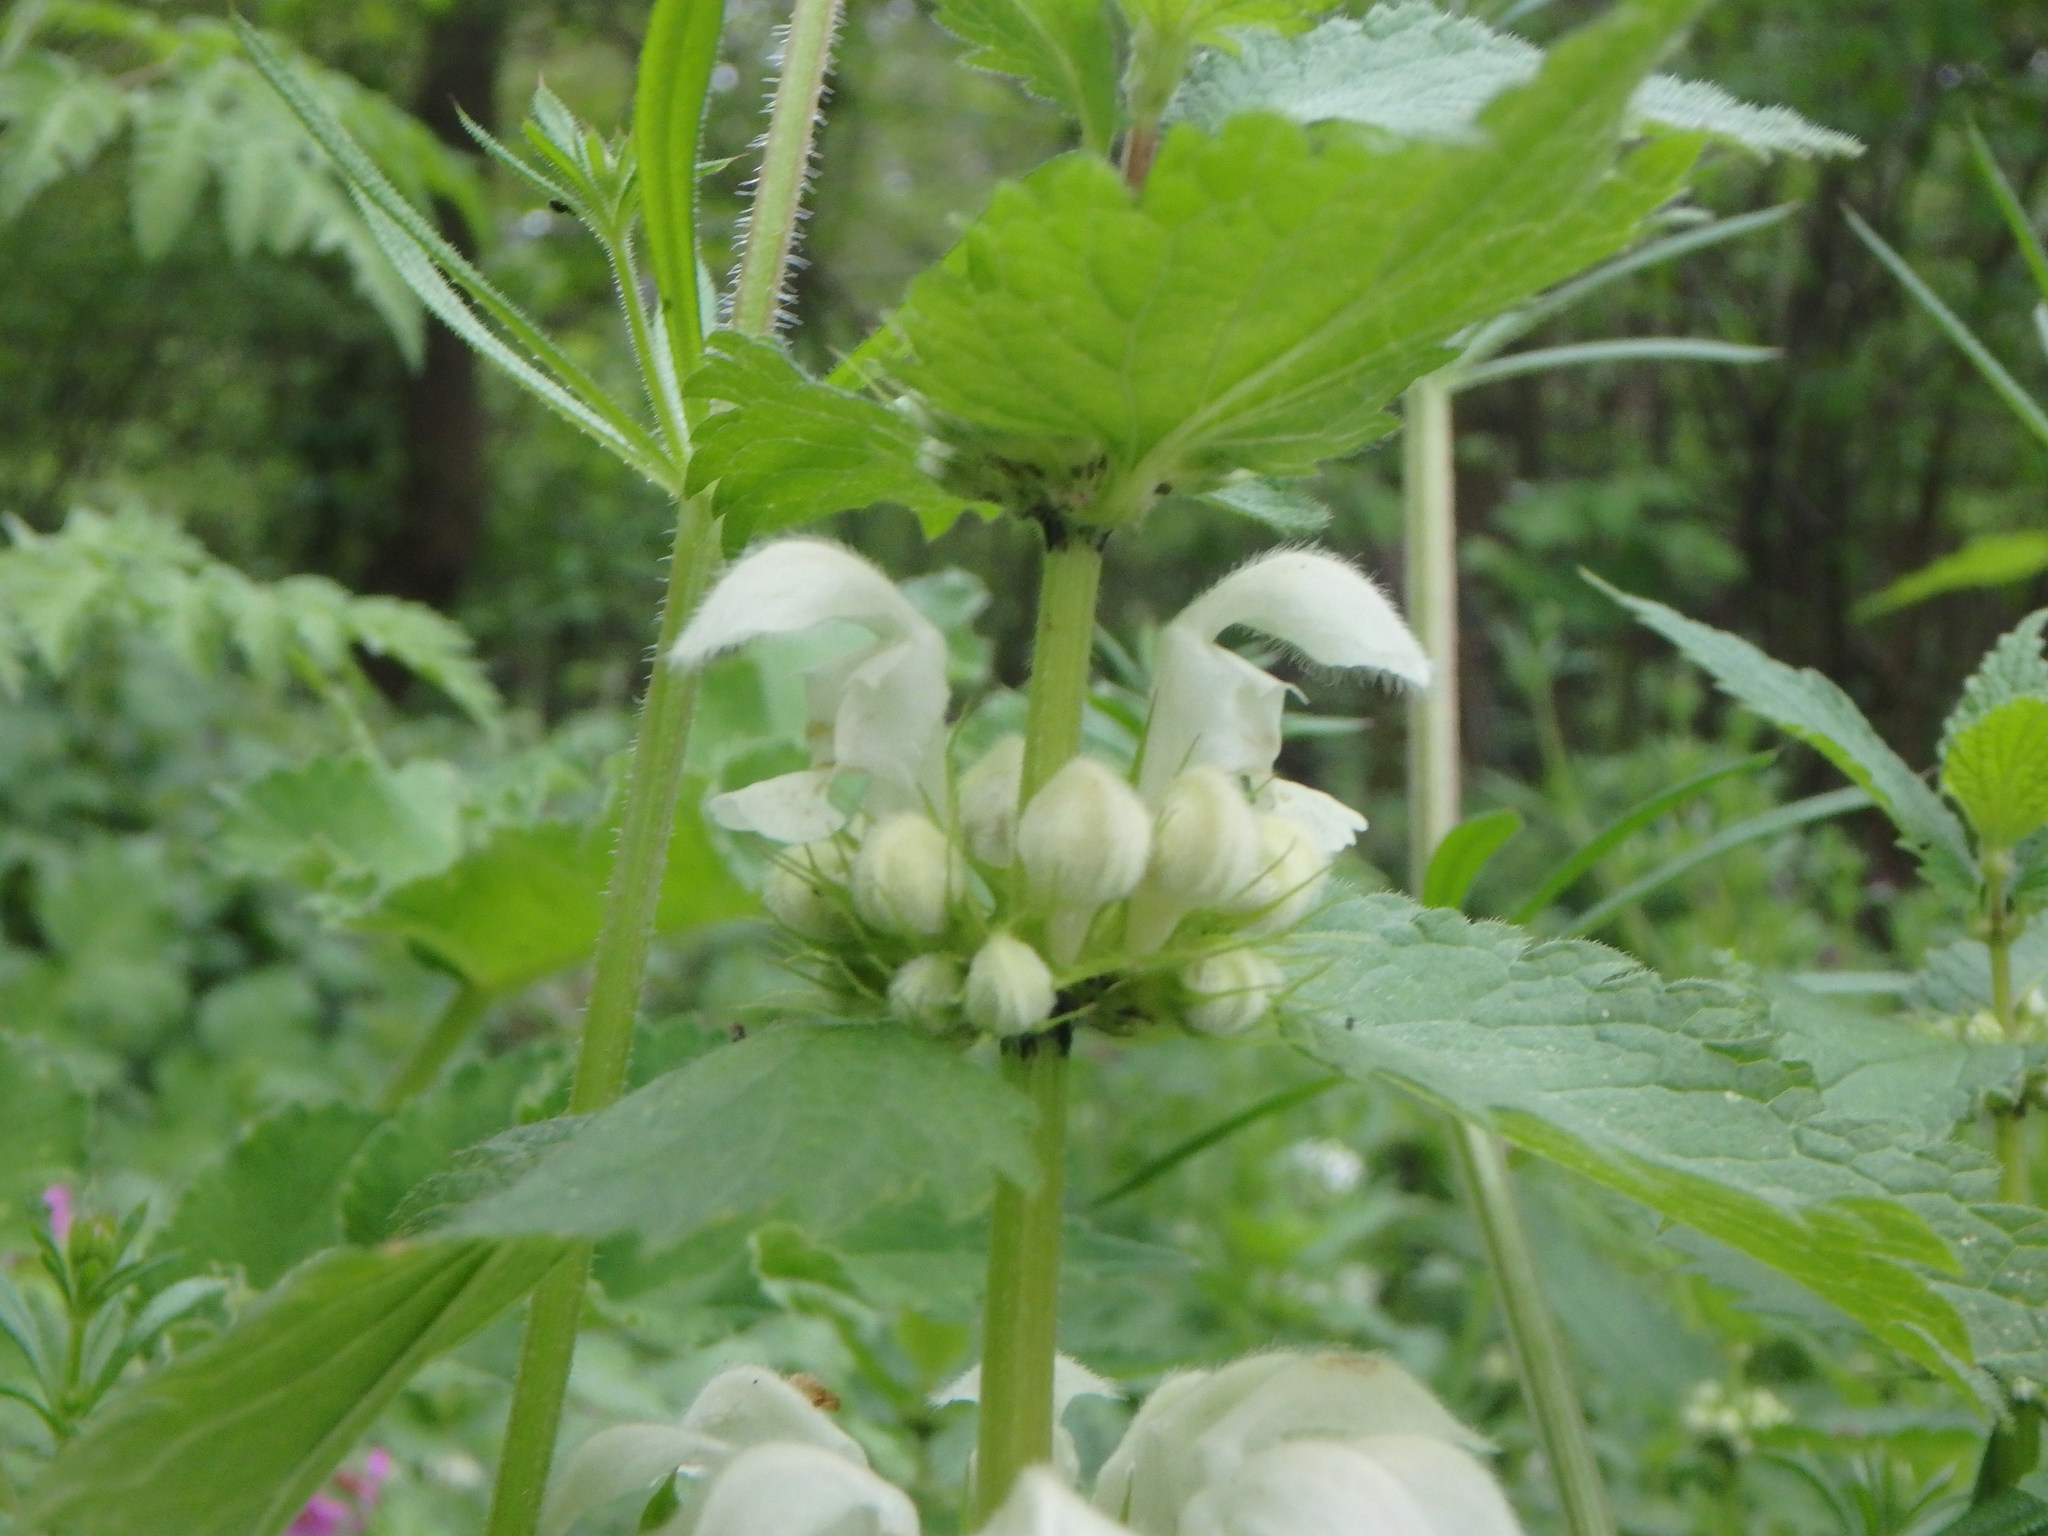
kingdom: Plantae
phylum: Tracheophyta
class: Magnoliopsida
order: Lamiales
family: Lamiaceae
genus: Lamium
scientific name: Lamium album
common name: White dead-nettle
